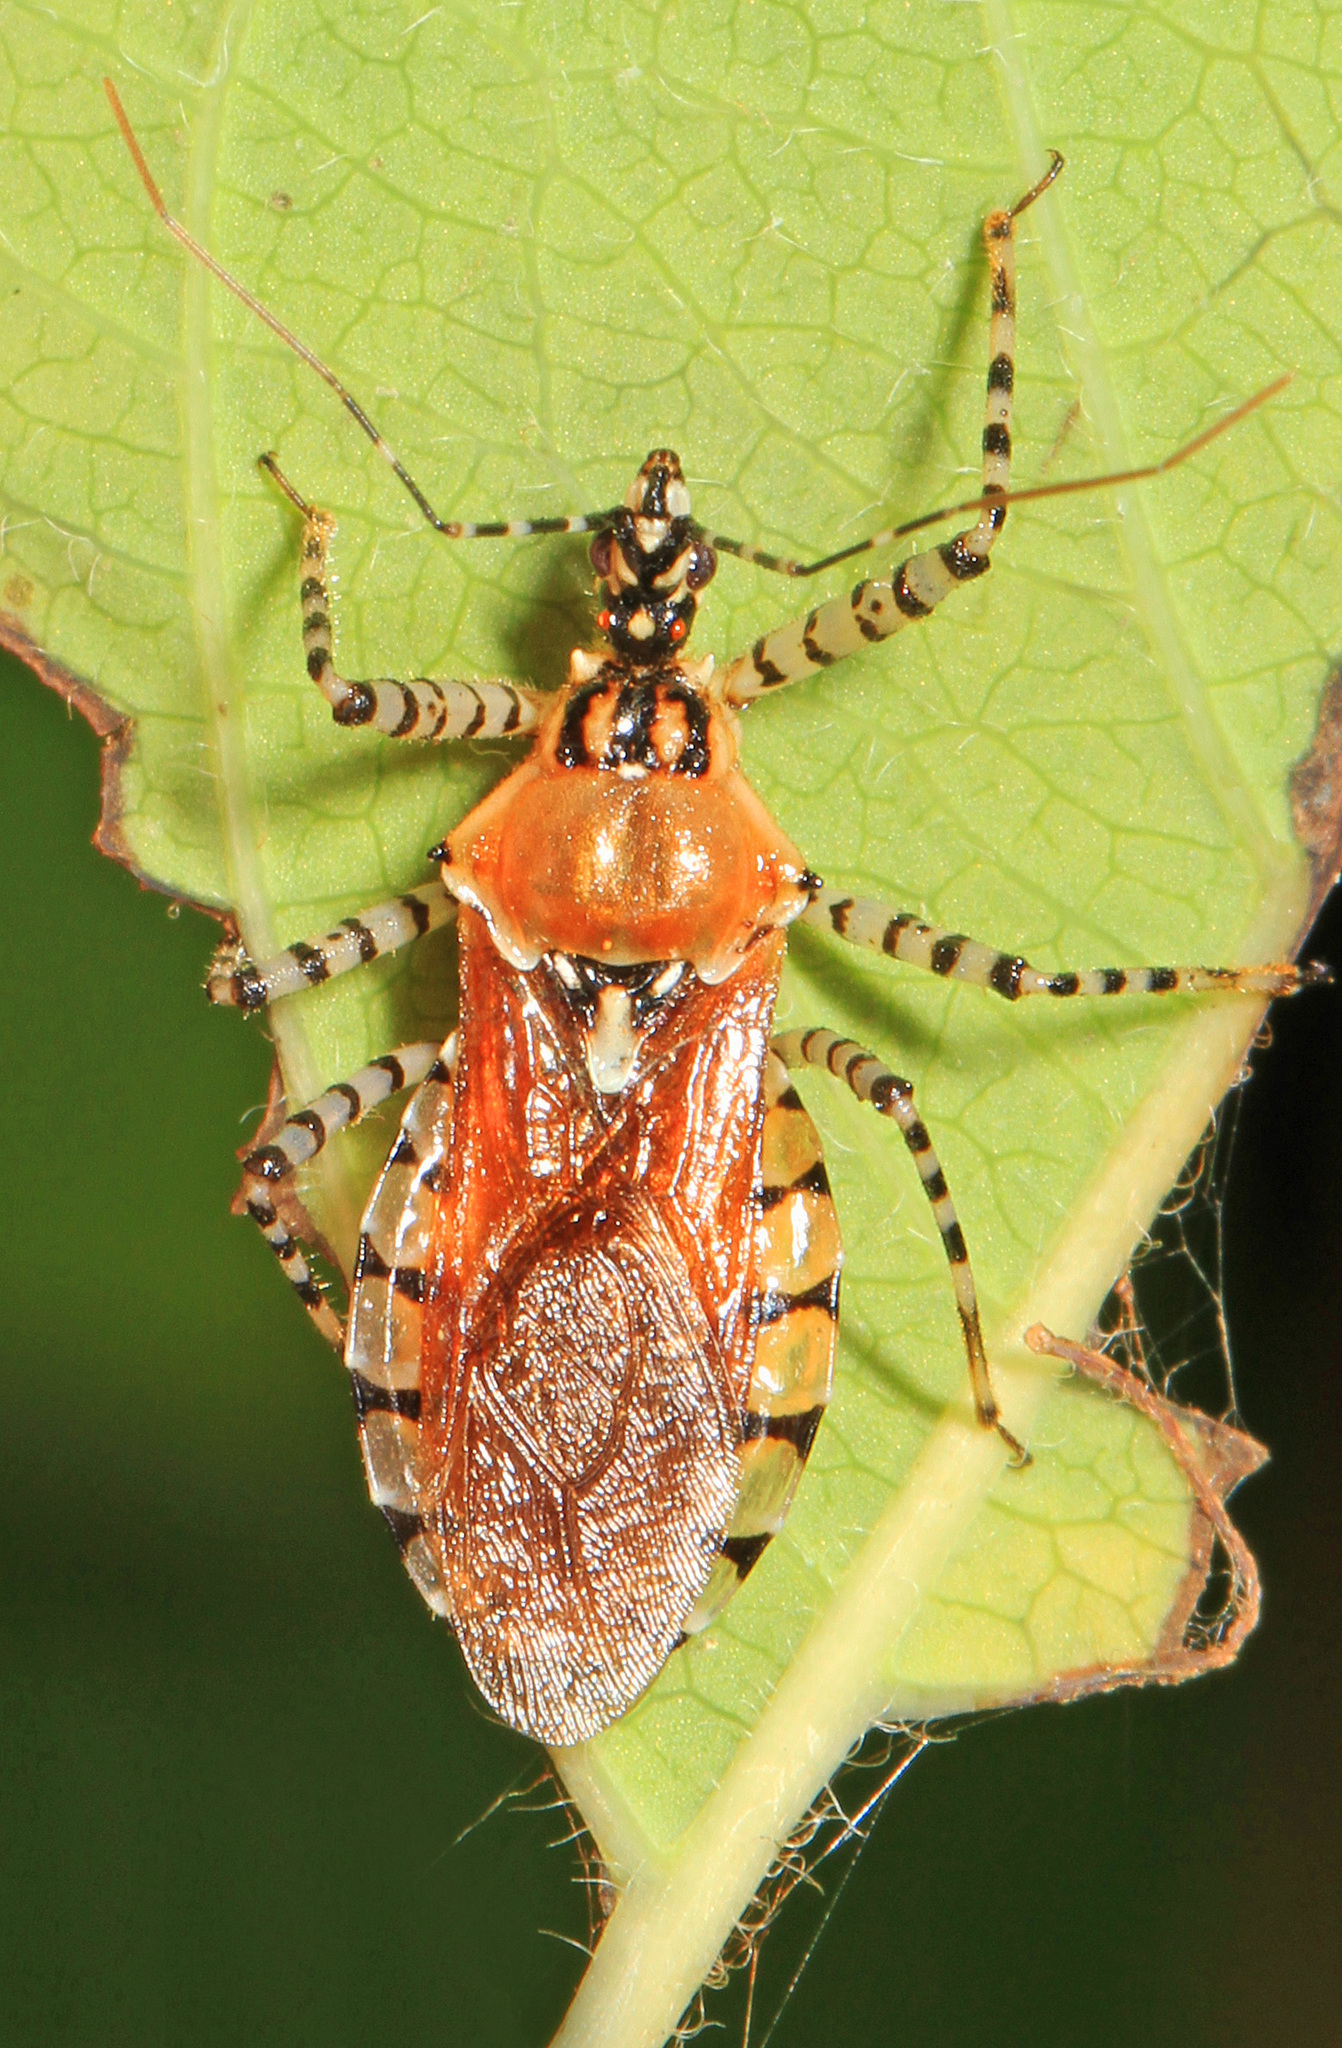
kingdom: Animalia
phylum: Arthropoda
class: Insecta
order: Hemiptera
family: Reduviidae
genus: Pselliopus
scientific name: Pselliopus cinctus
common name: Ringed assassin bug
